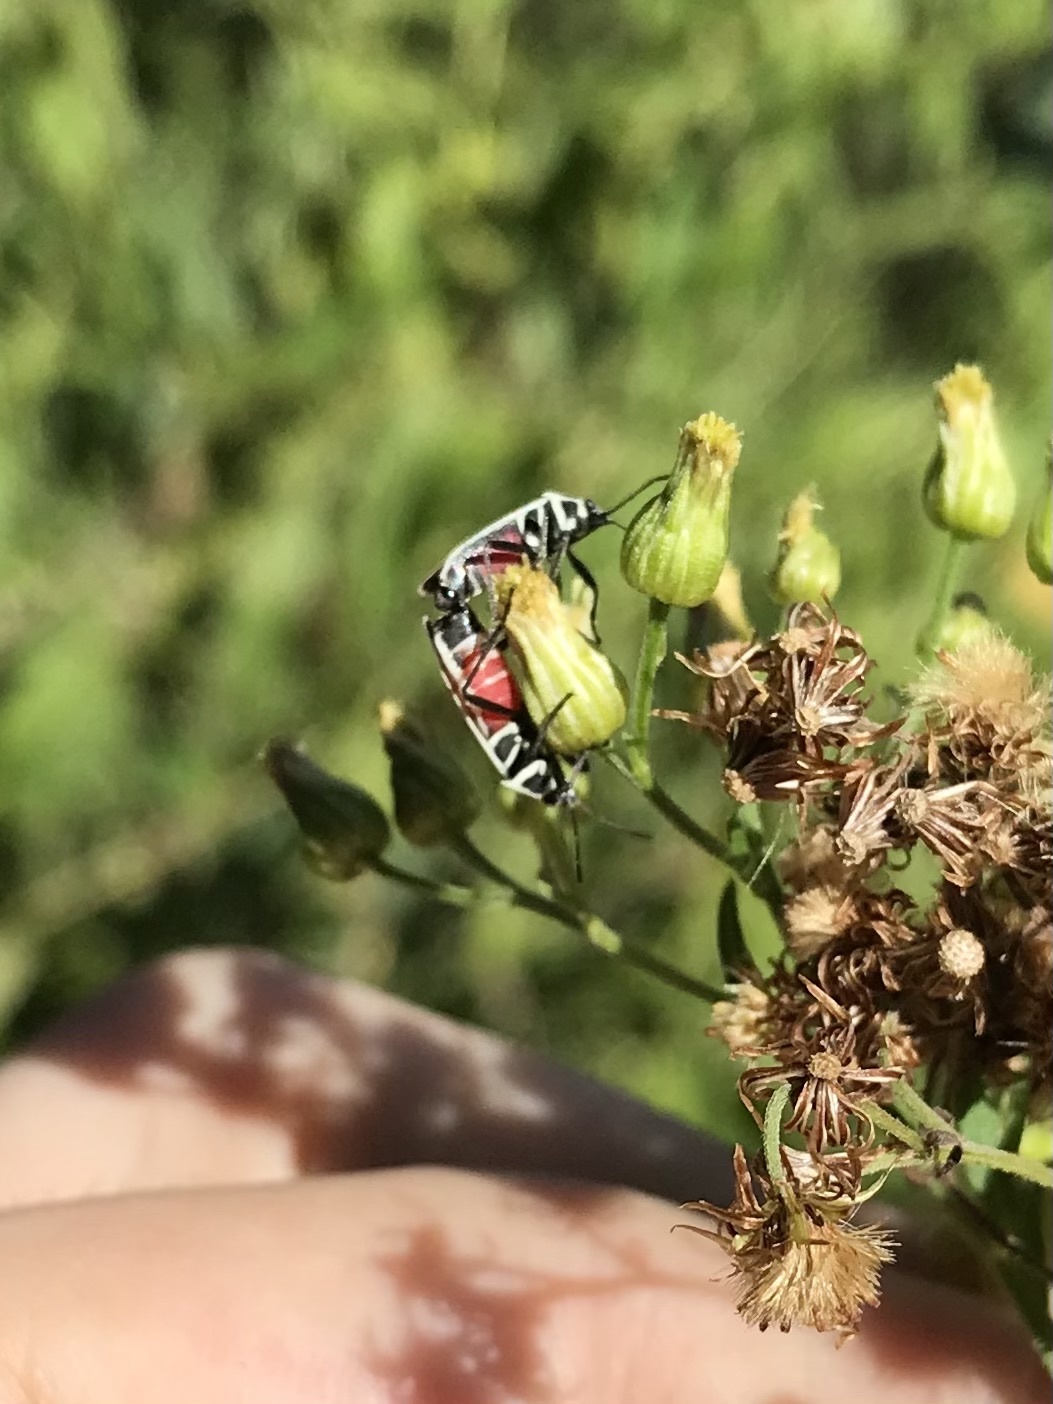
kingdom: Animalia
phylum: Arthropoda
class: Insecta
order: Hemiptera
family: Lygaeidae
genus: Ochrimnus
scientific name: Ochrimnus schizus
